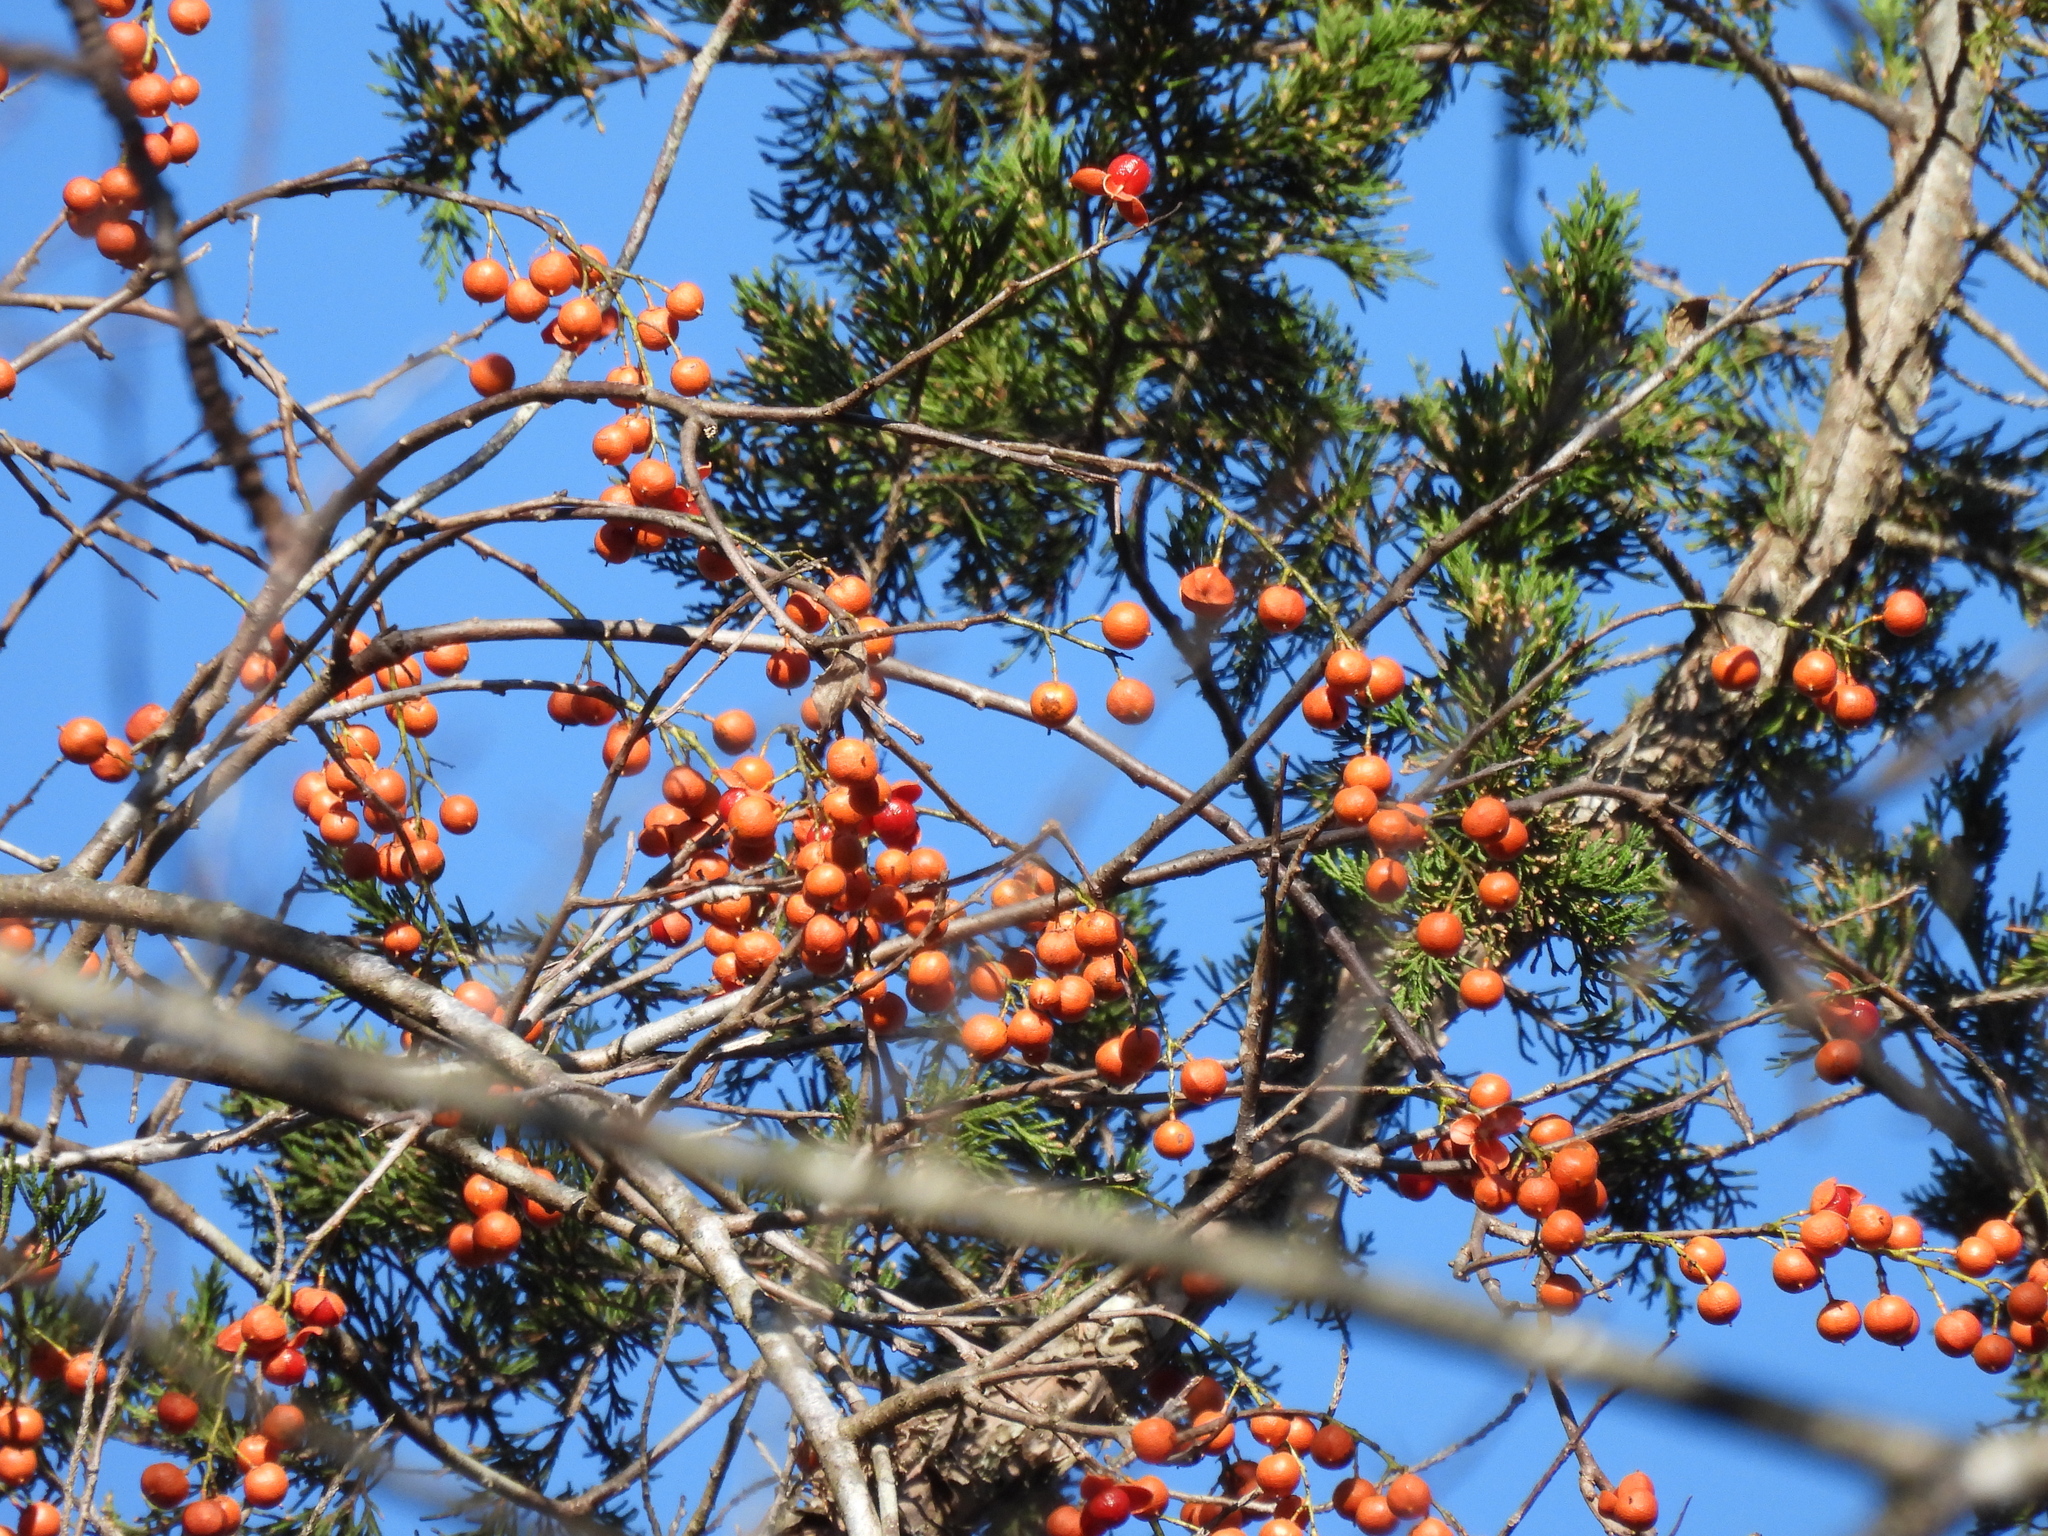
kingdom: Plantae
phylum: Tracheophyta
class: Magnoliopsida
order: Celastrales
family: Celastraceae
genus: Celastrus
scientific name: Celastrus scandens
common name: American bittersweet
